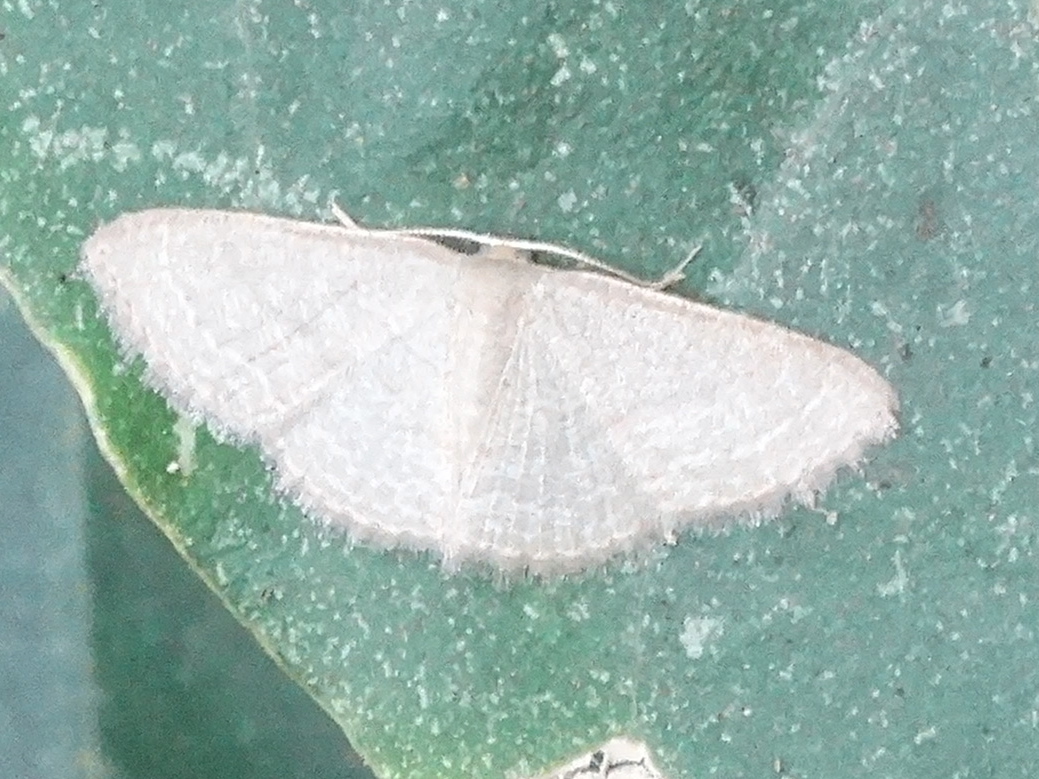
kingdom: Animalia
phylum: Arthropoda
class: Insecta
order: Lepidoptera
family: Geometridae
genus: Pleuroprucha
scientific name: Pleuroprucha
